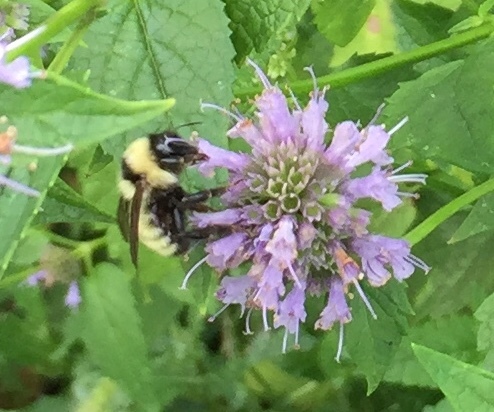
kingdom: Animalia
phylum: Arthropoda
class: Insecta
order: Hymenoptera
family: Apidae
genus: Bombus
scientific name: Bombus fervidus
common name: Yellow bumble bee
